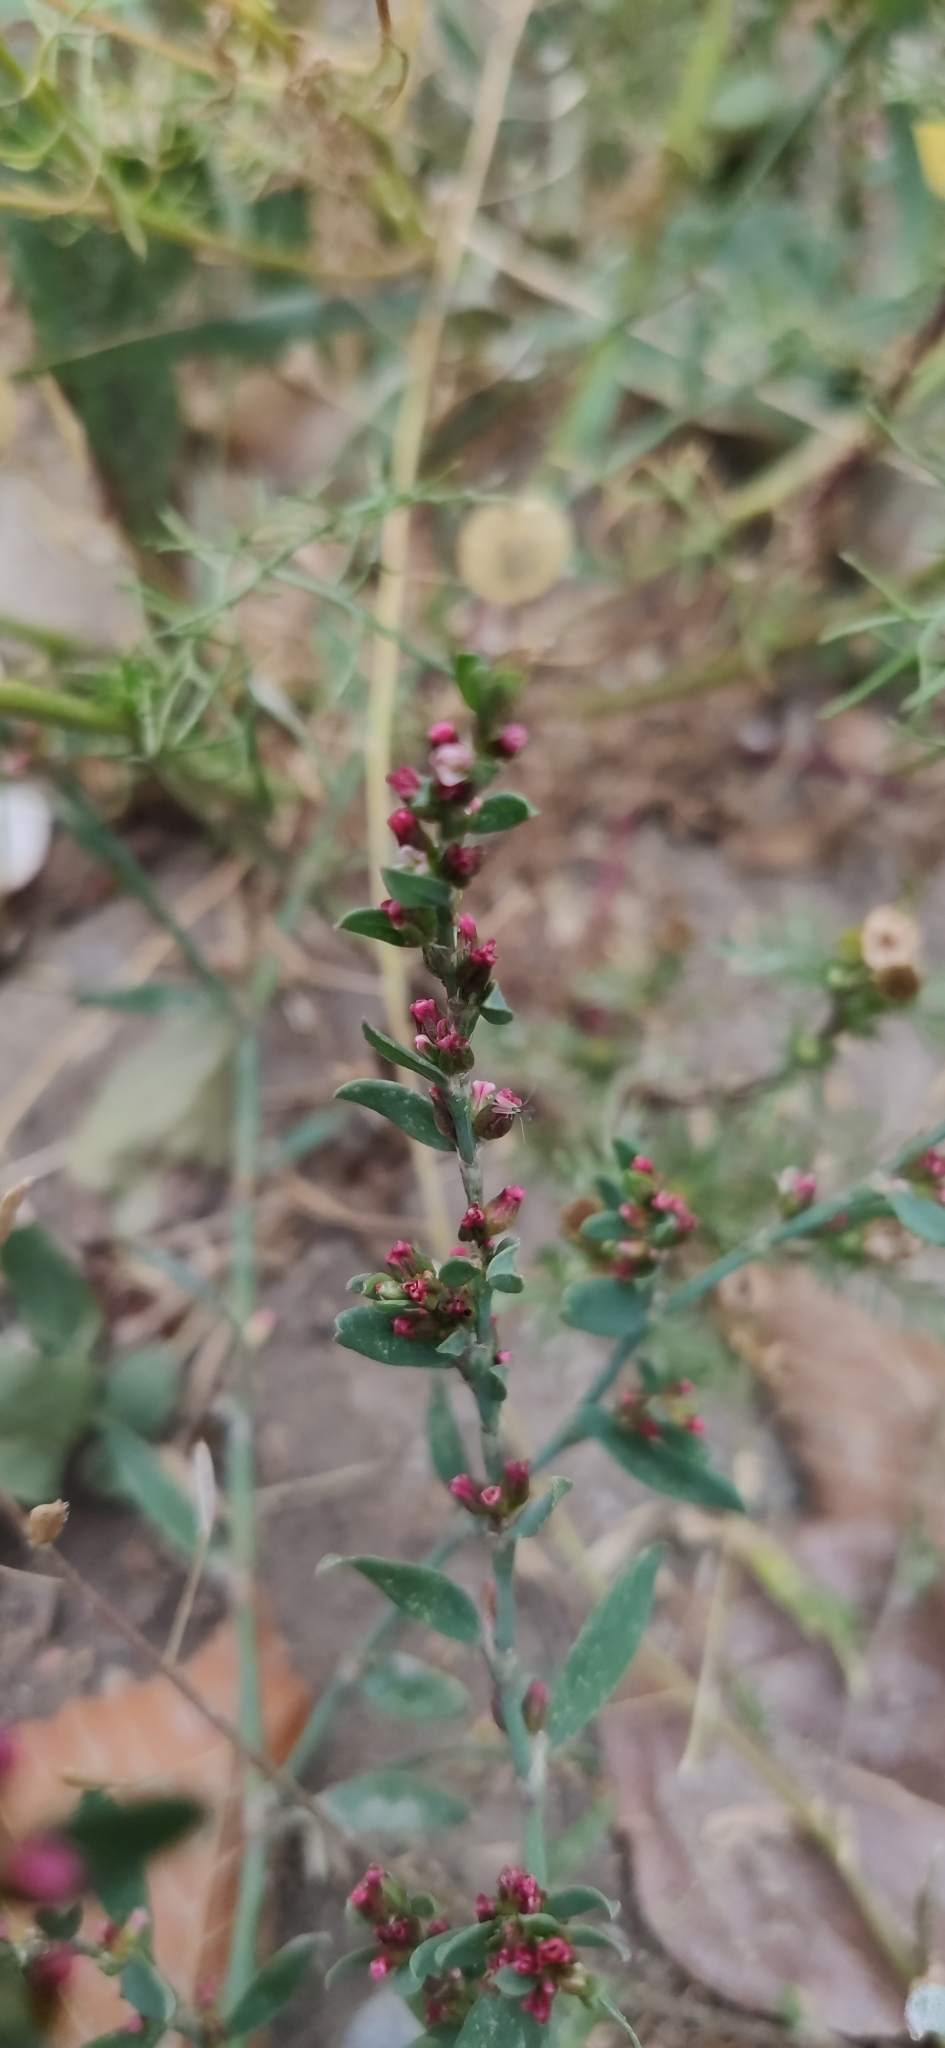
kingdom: Plantae
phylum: Tracheophyta
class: Magnoliopsida
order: Caryophyllales
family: Polygonaceae
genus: Polygonum
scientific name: Polygonum
